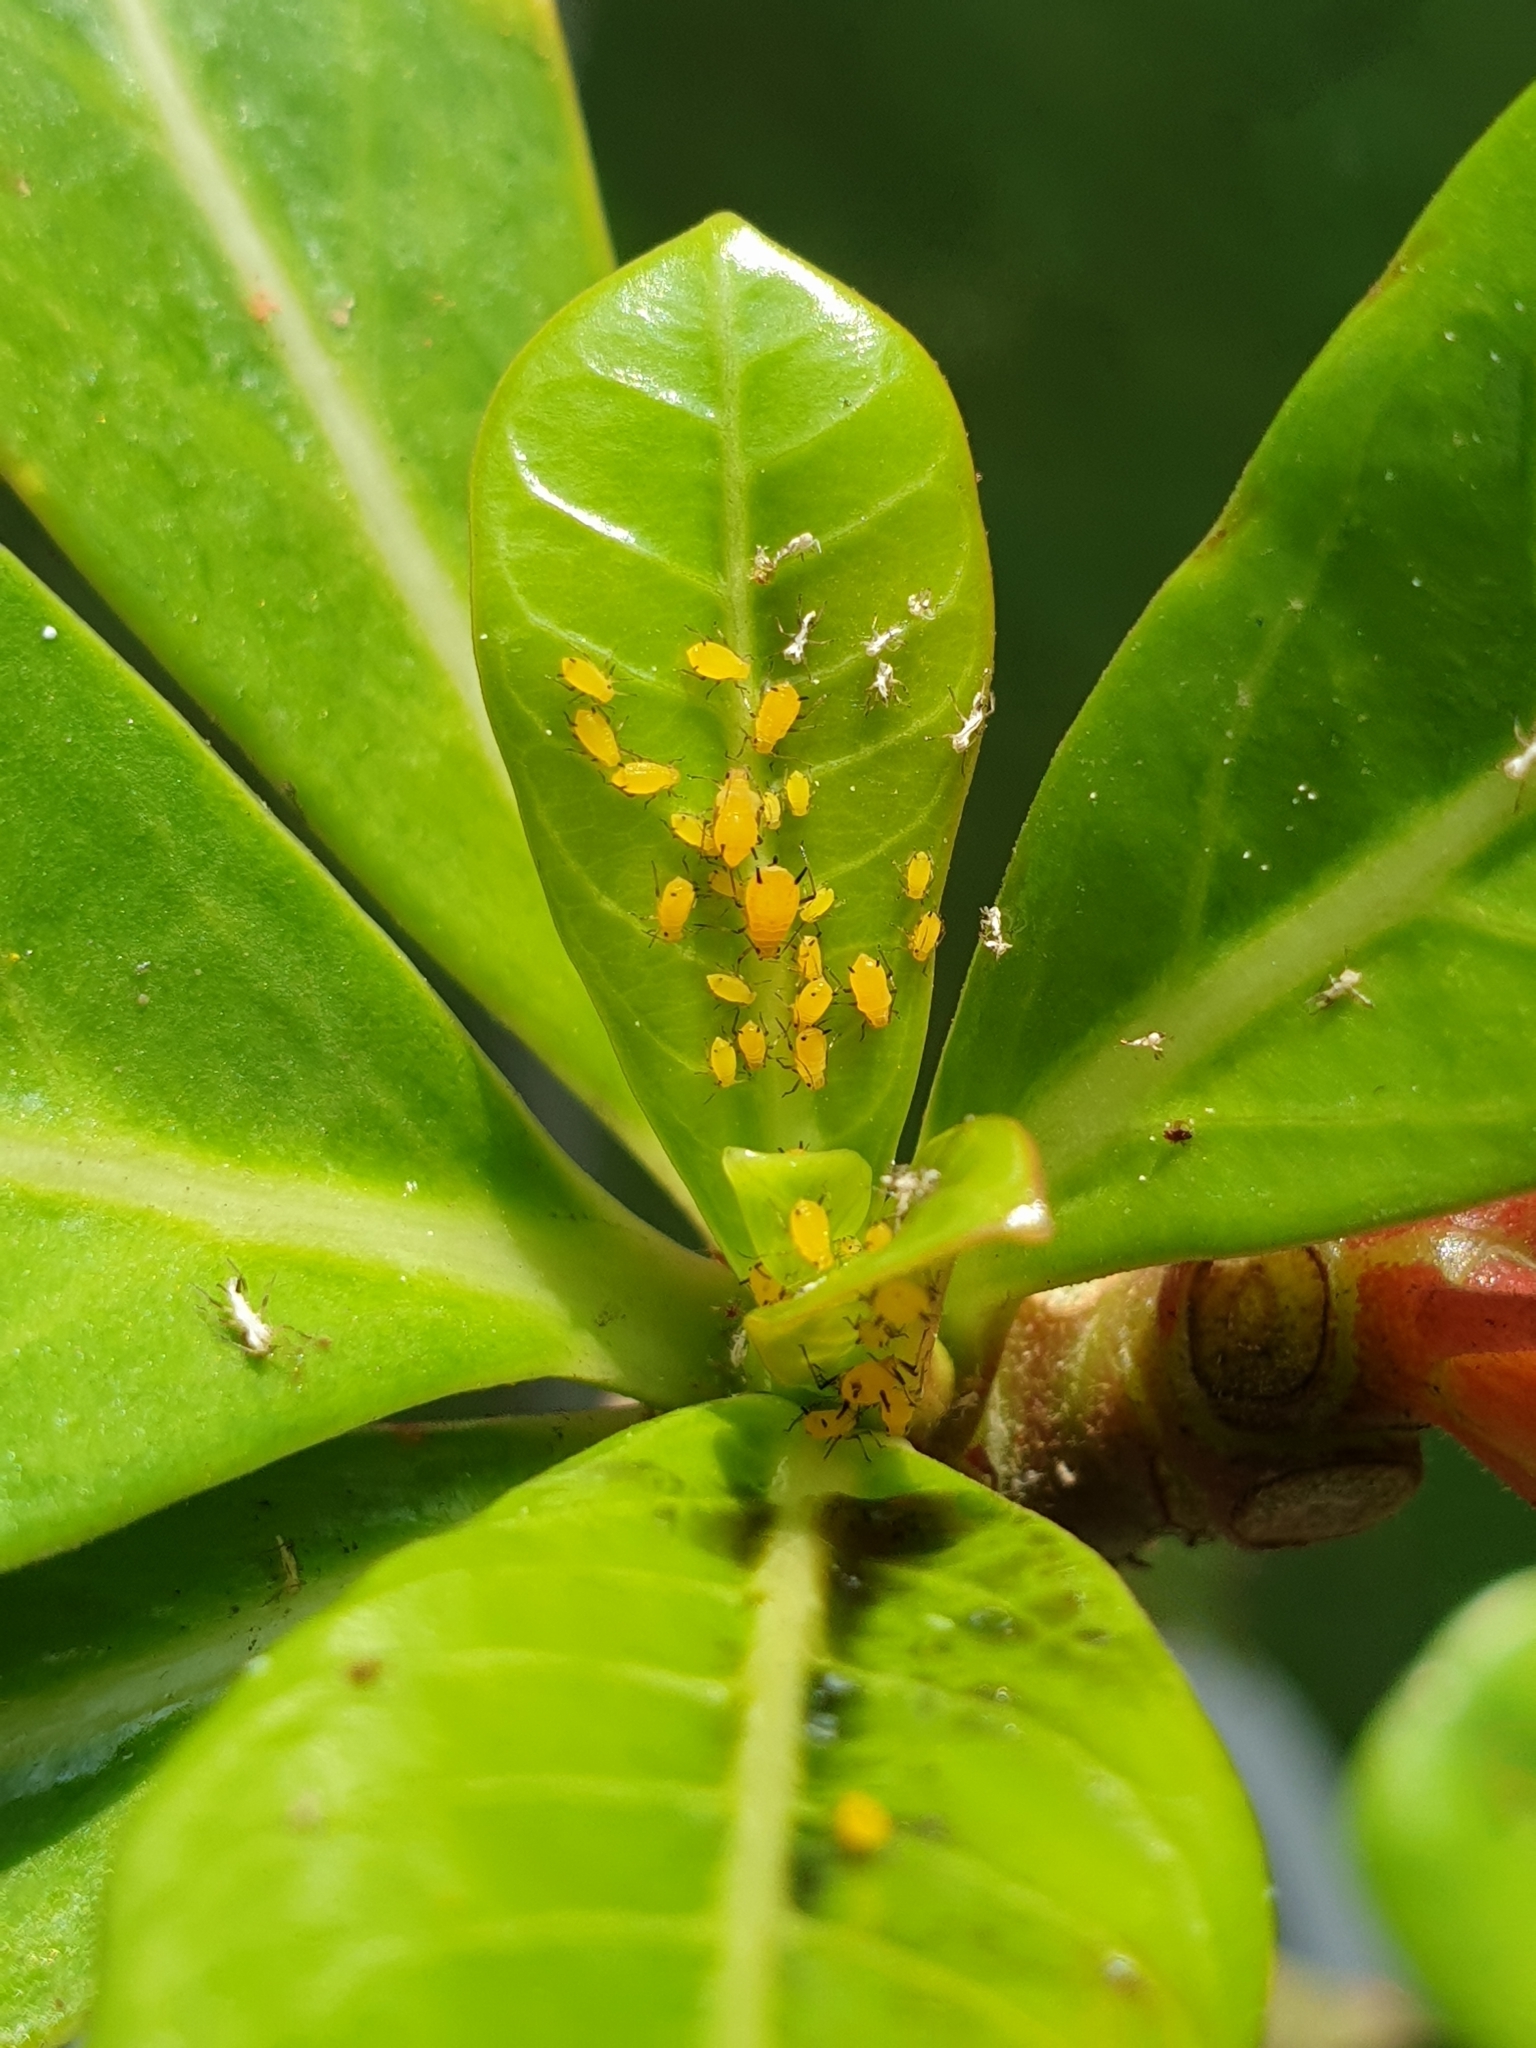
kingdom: Animalia
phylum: Arthropoda
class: Insecta
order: Hemiptera
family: Aphididae
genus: Aphis
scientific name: Aphis nerii
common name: Oleander aphid
